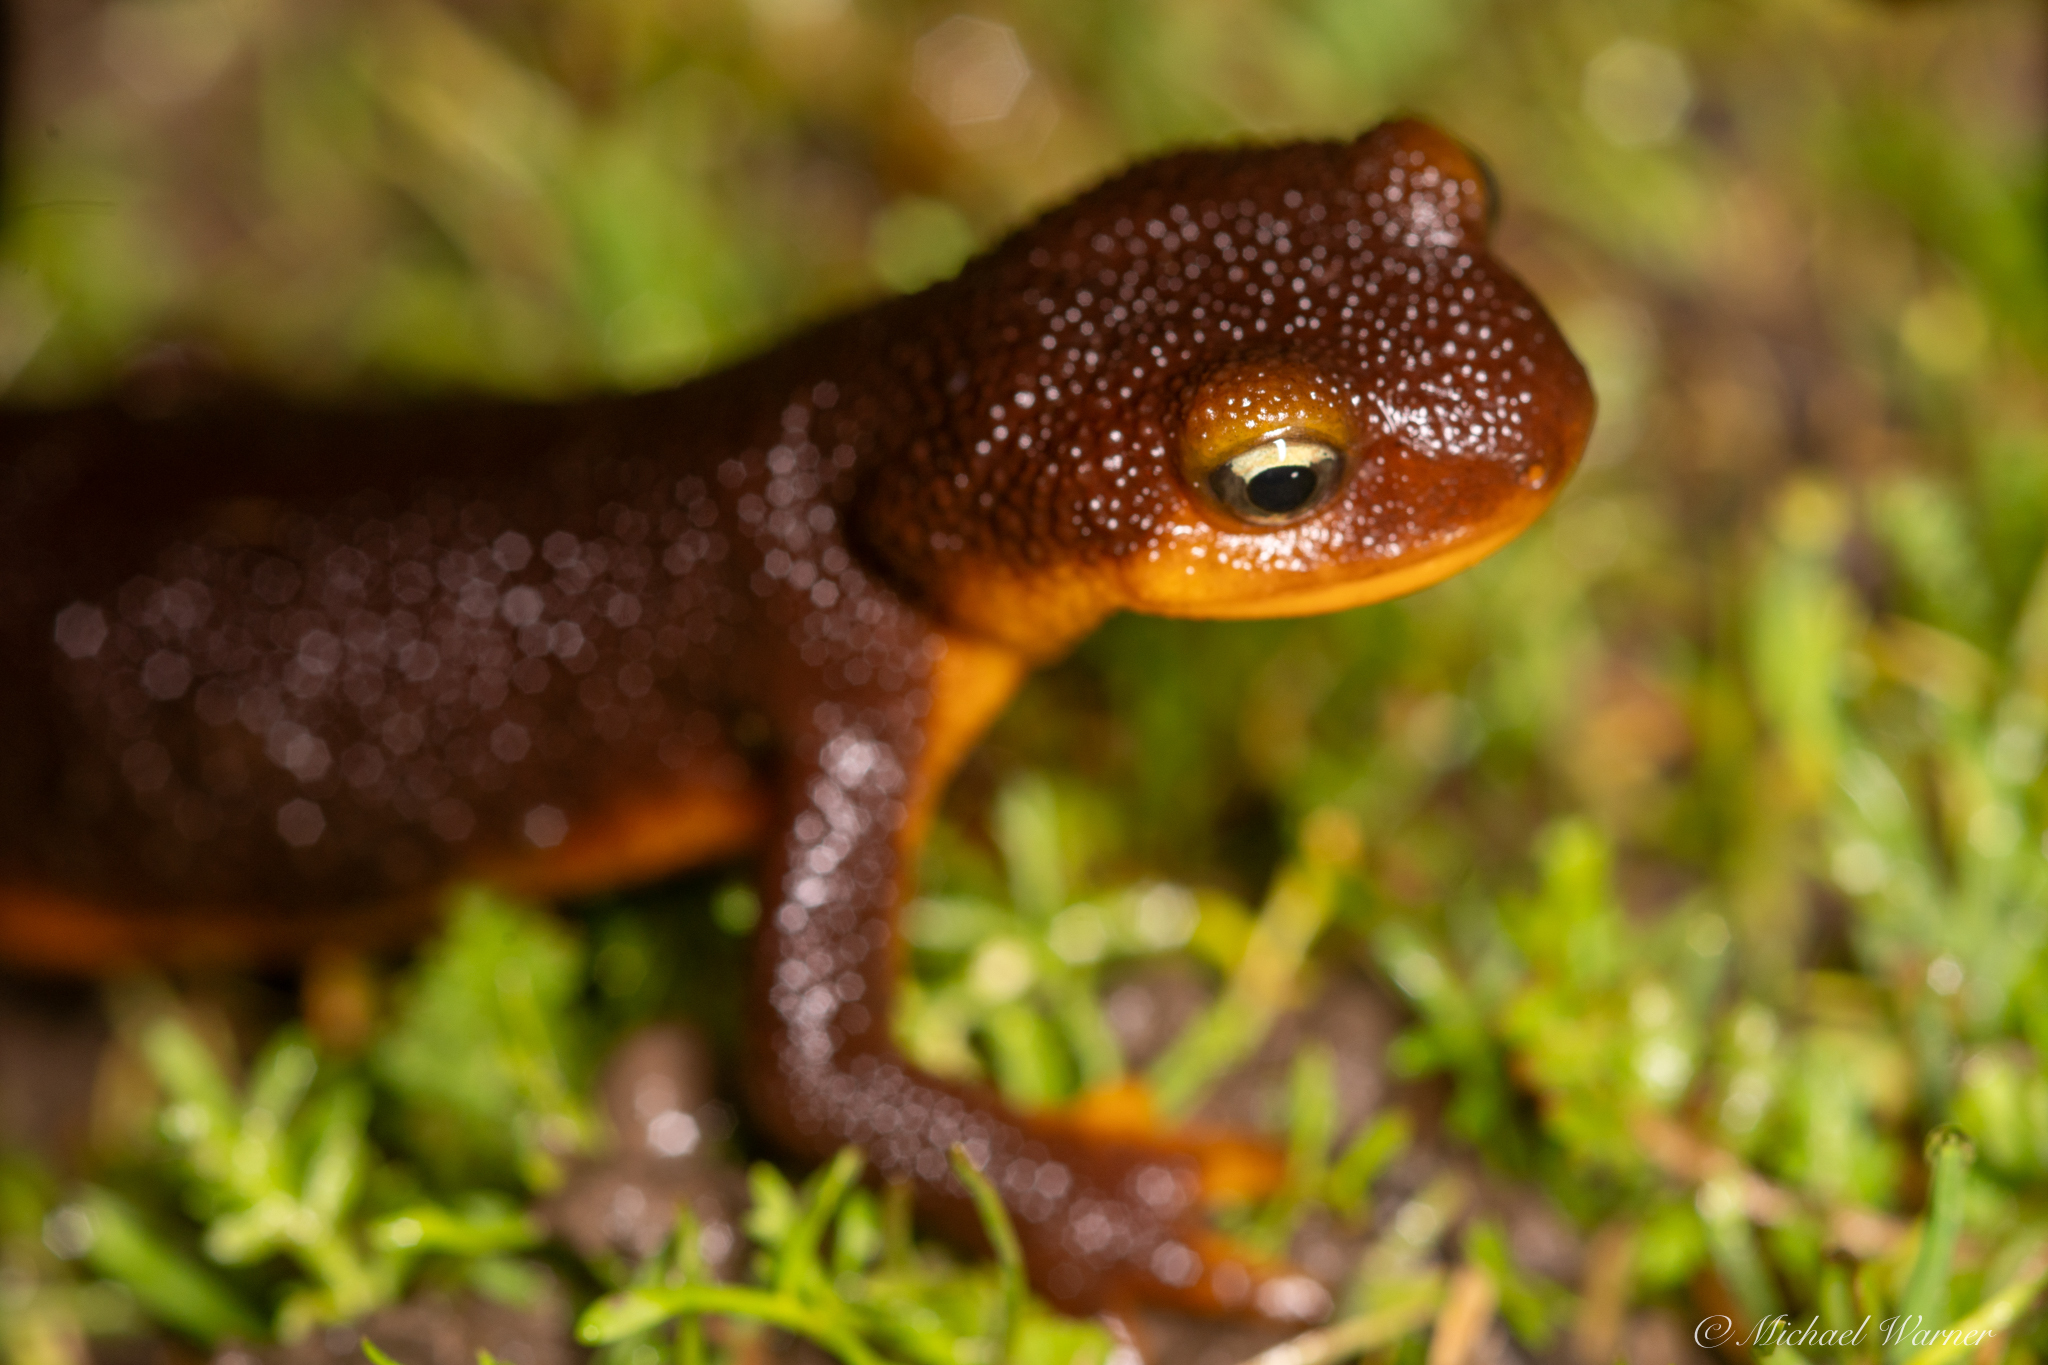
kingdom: Animalia
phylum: Chordata
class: Amphibia
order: Caudata
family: Salamandridae
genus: Taricha
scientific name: Taricha torosa
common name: California newt
